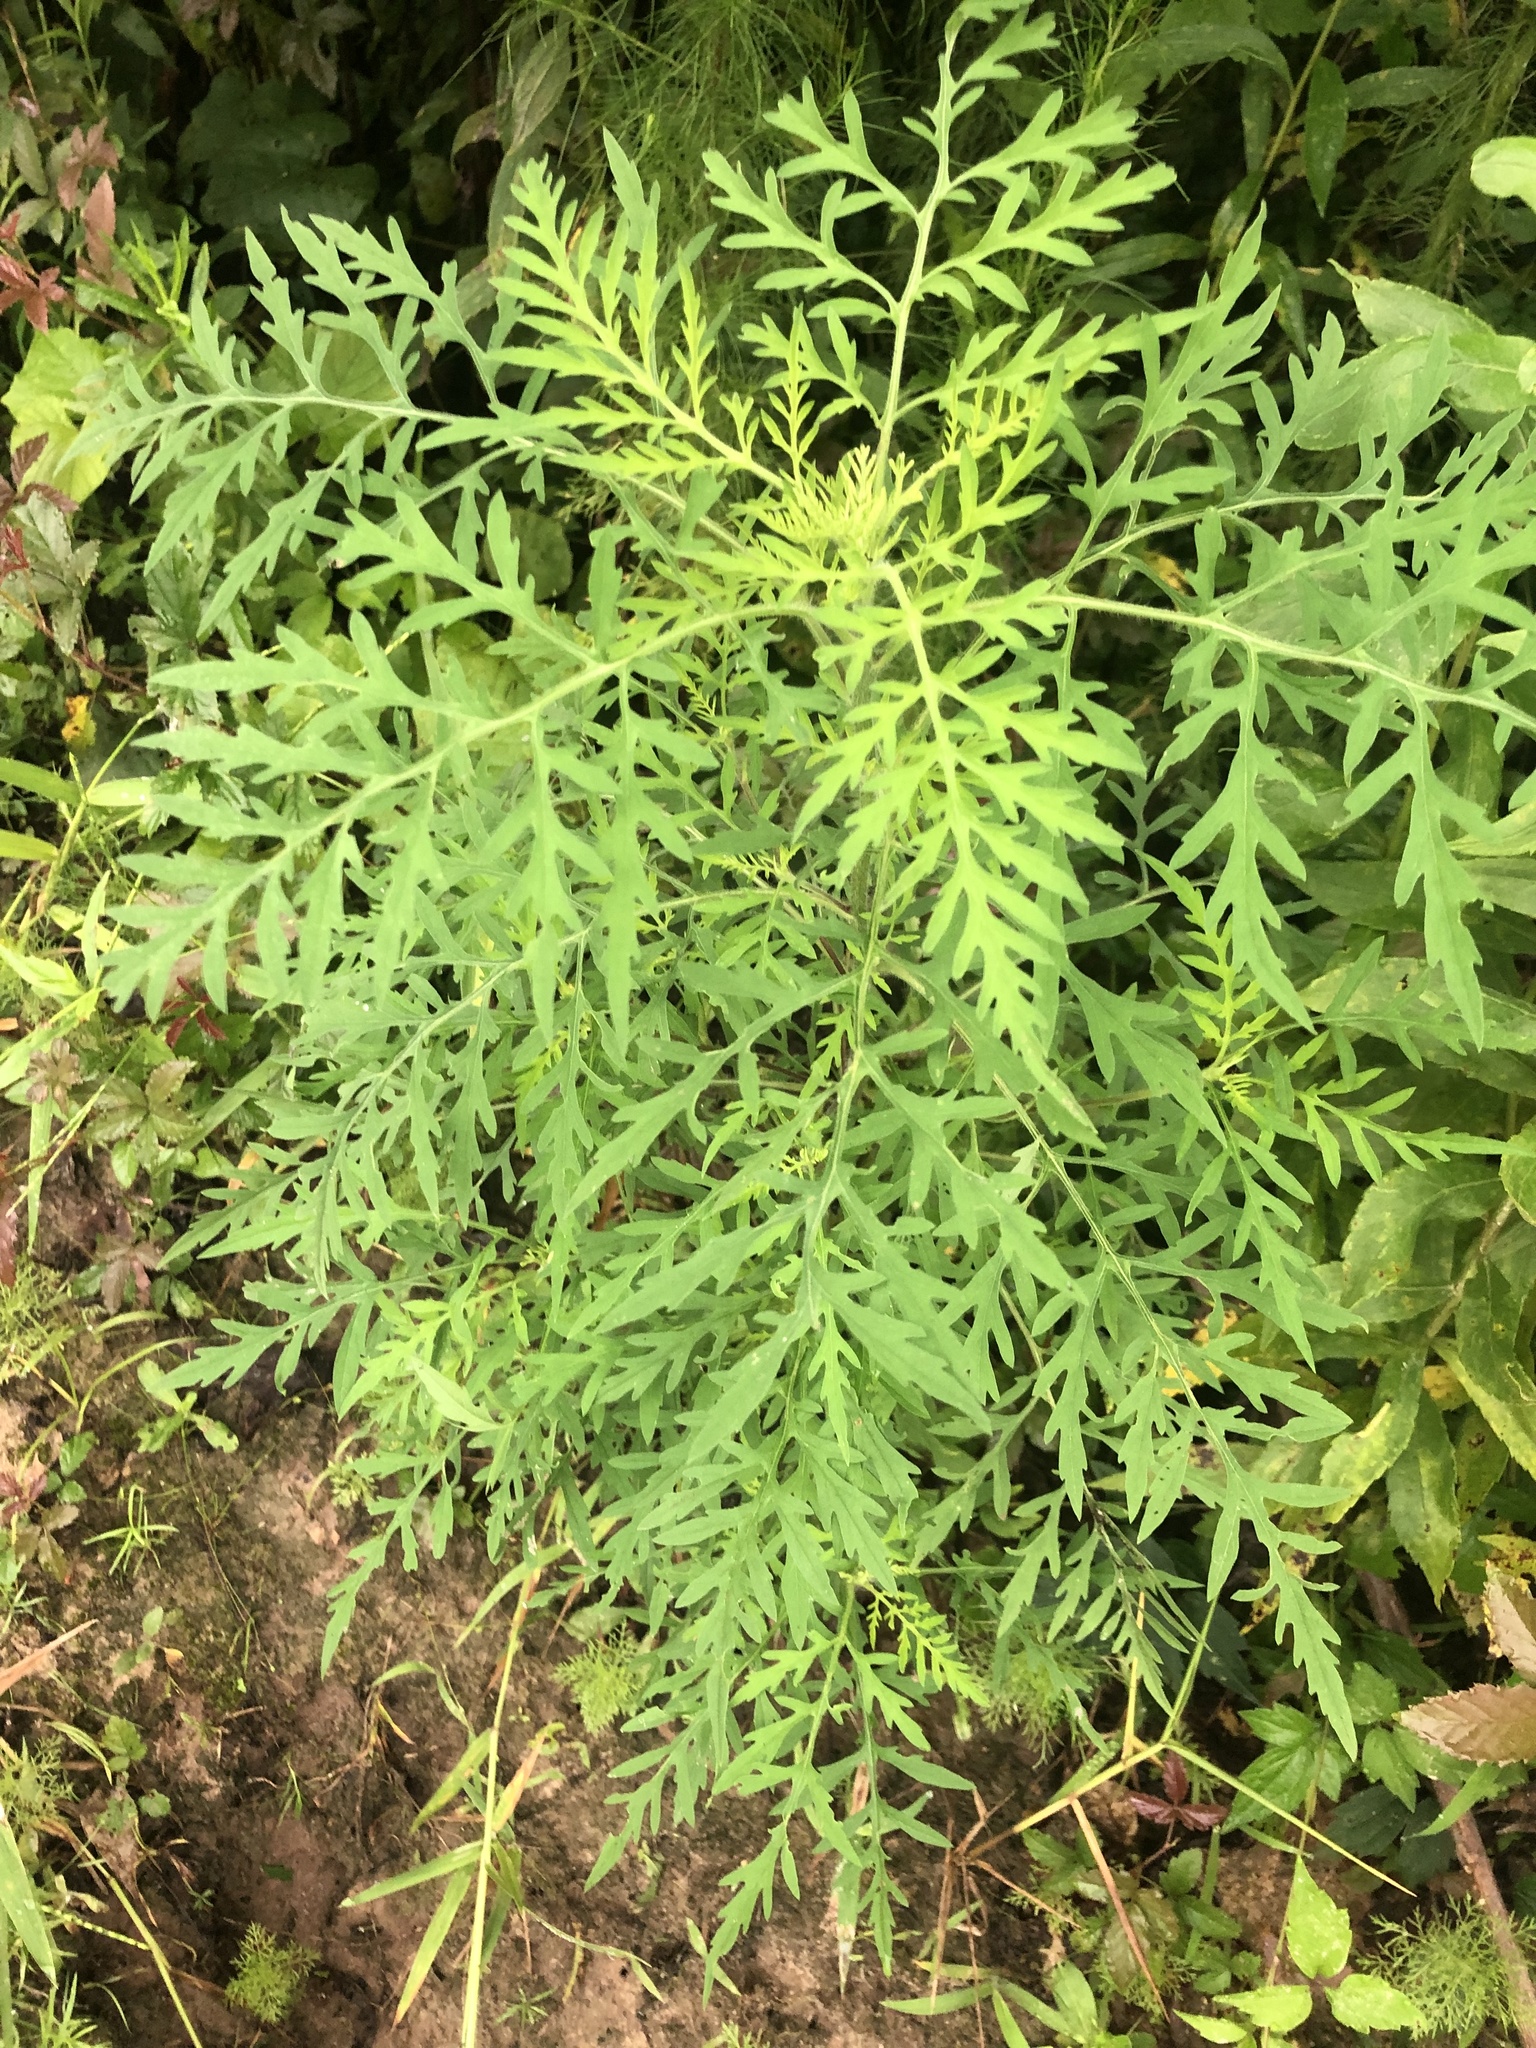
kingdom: Plantae
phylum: Tracheophyta
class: Magnoliopsida
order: Asterales
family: Asteraceae
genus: Ambrosia
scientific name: Ambrosia artemisiifolia
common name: Annual ragweed
